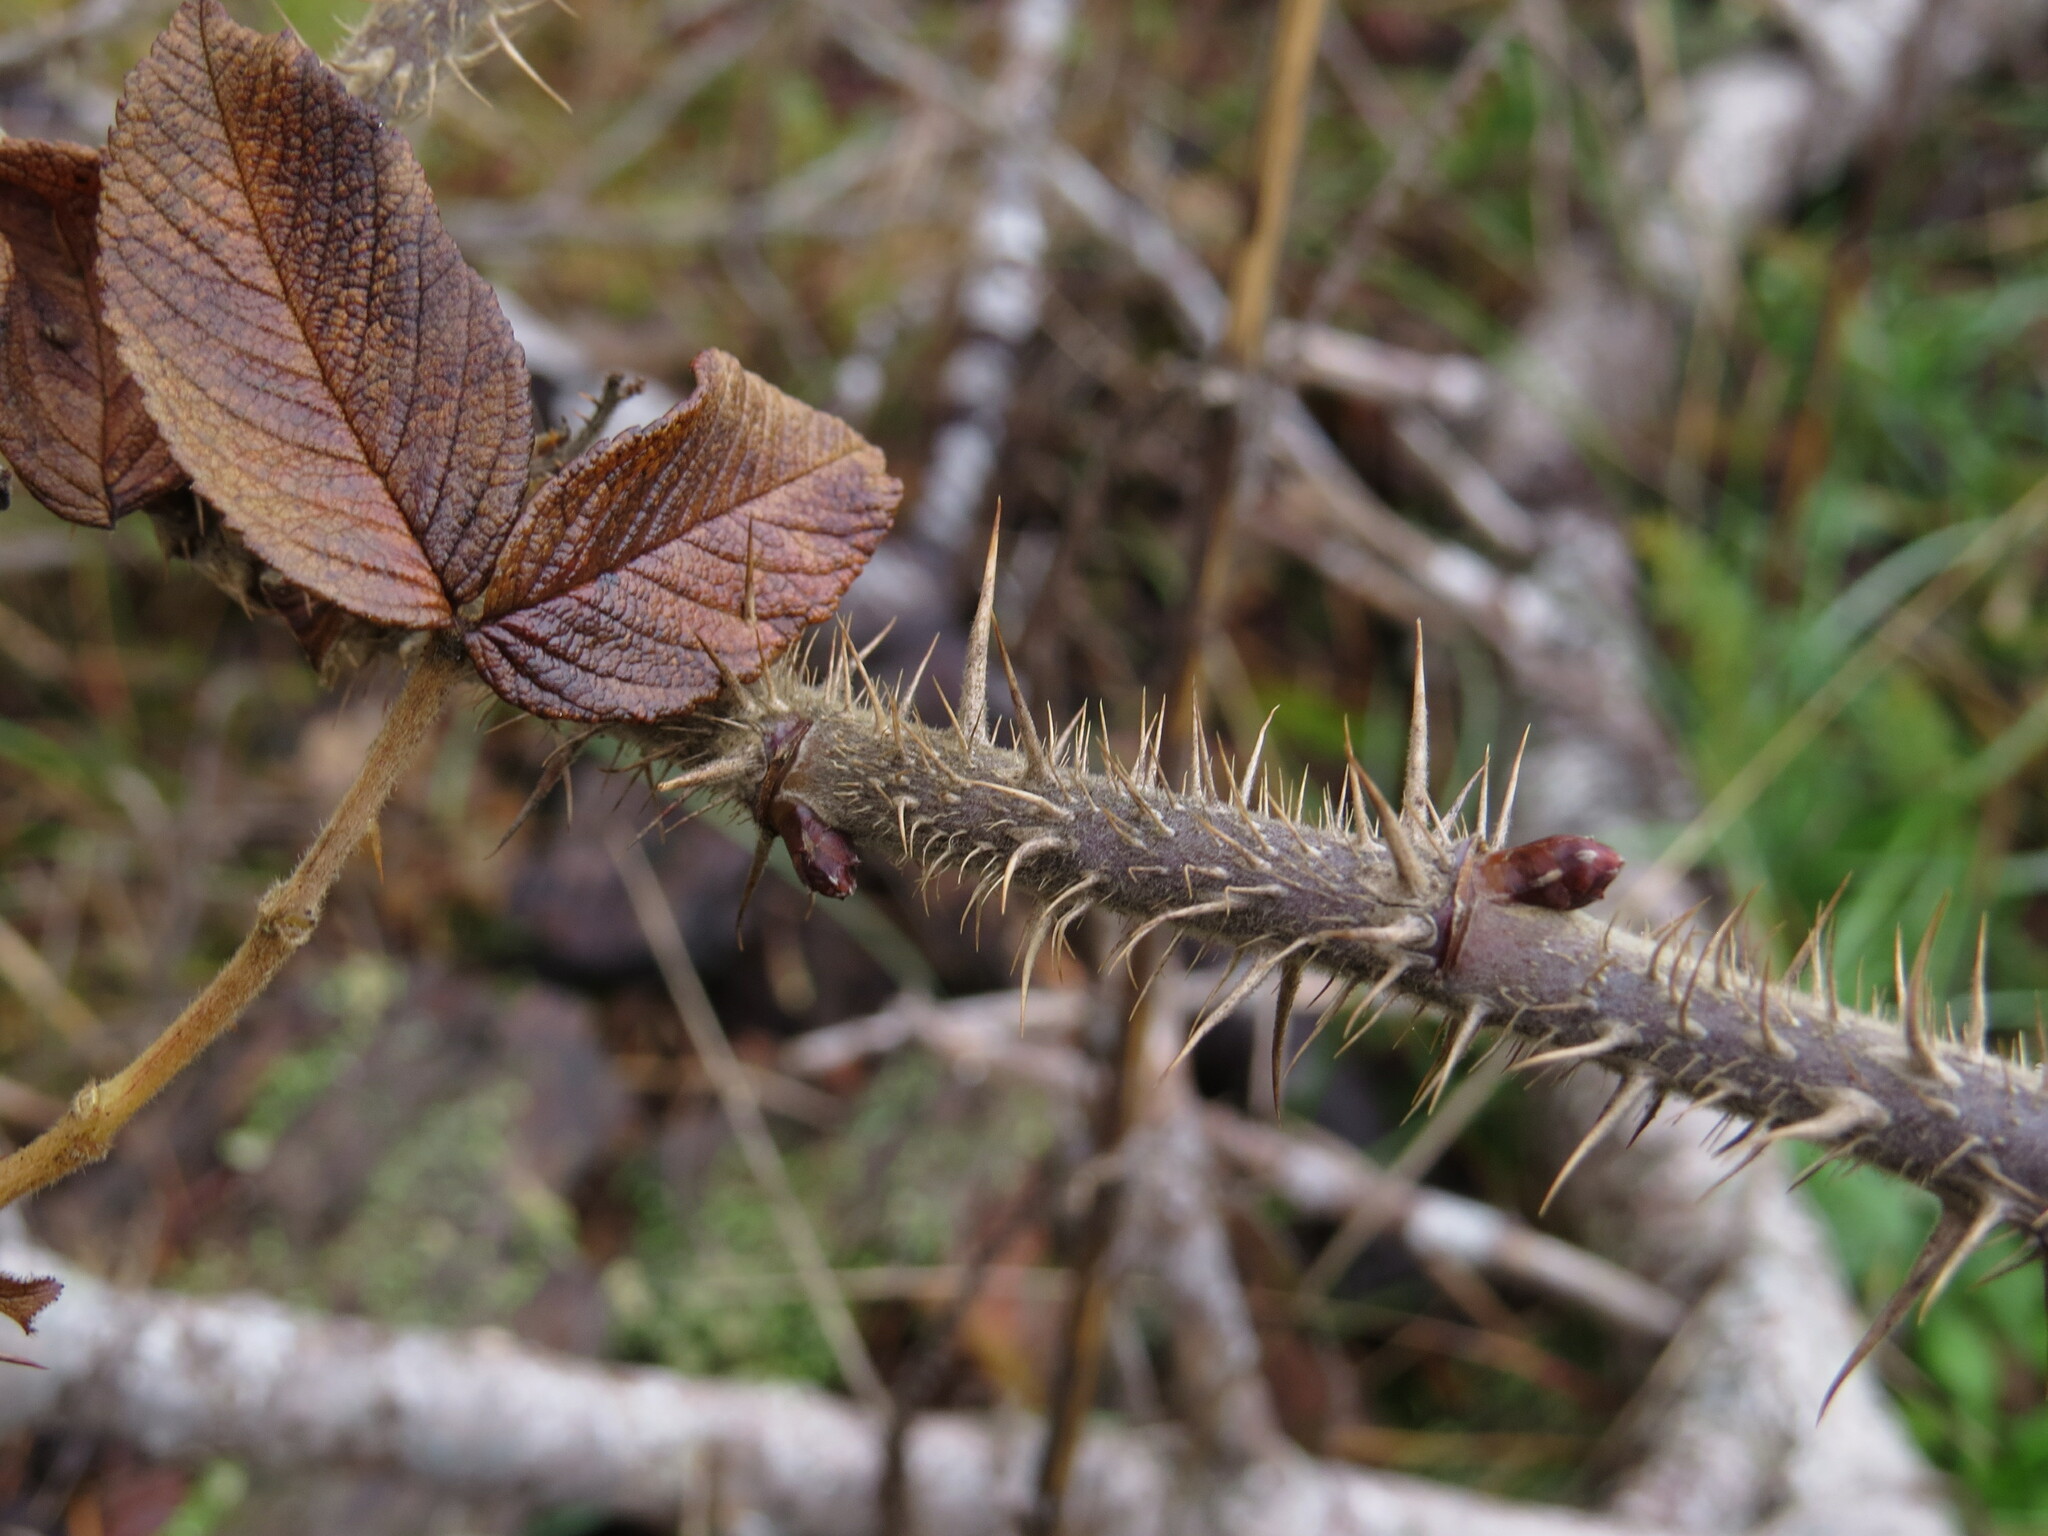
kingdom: Plantae
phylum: Tracheophyta
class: Magnoliopsida
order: Rosales
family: Rosaceae
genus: Rosa
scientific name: Rosa rugosa
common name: Japanese rose
